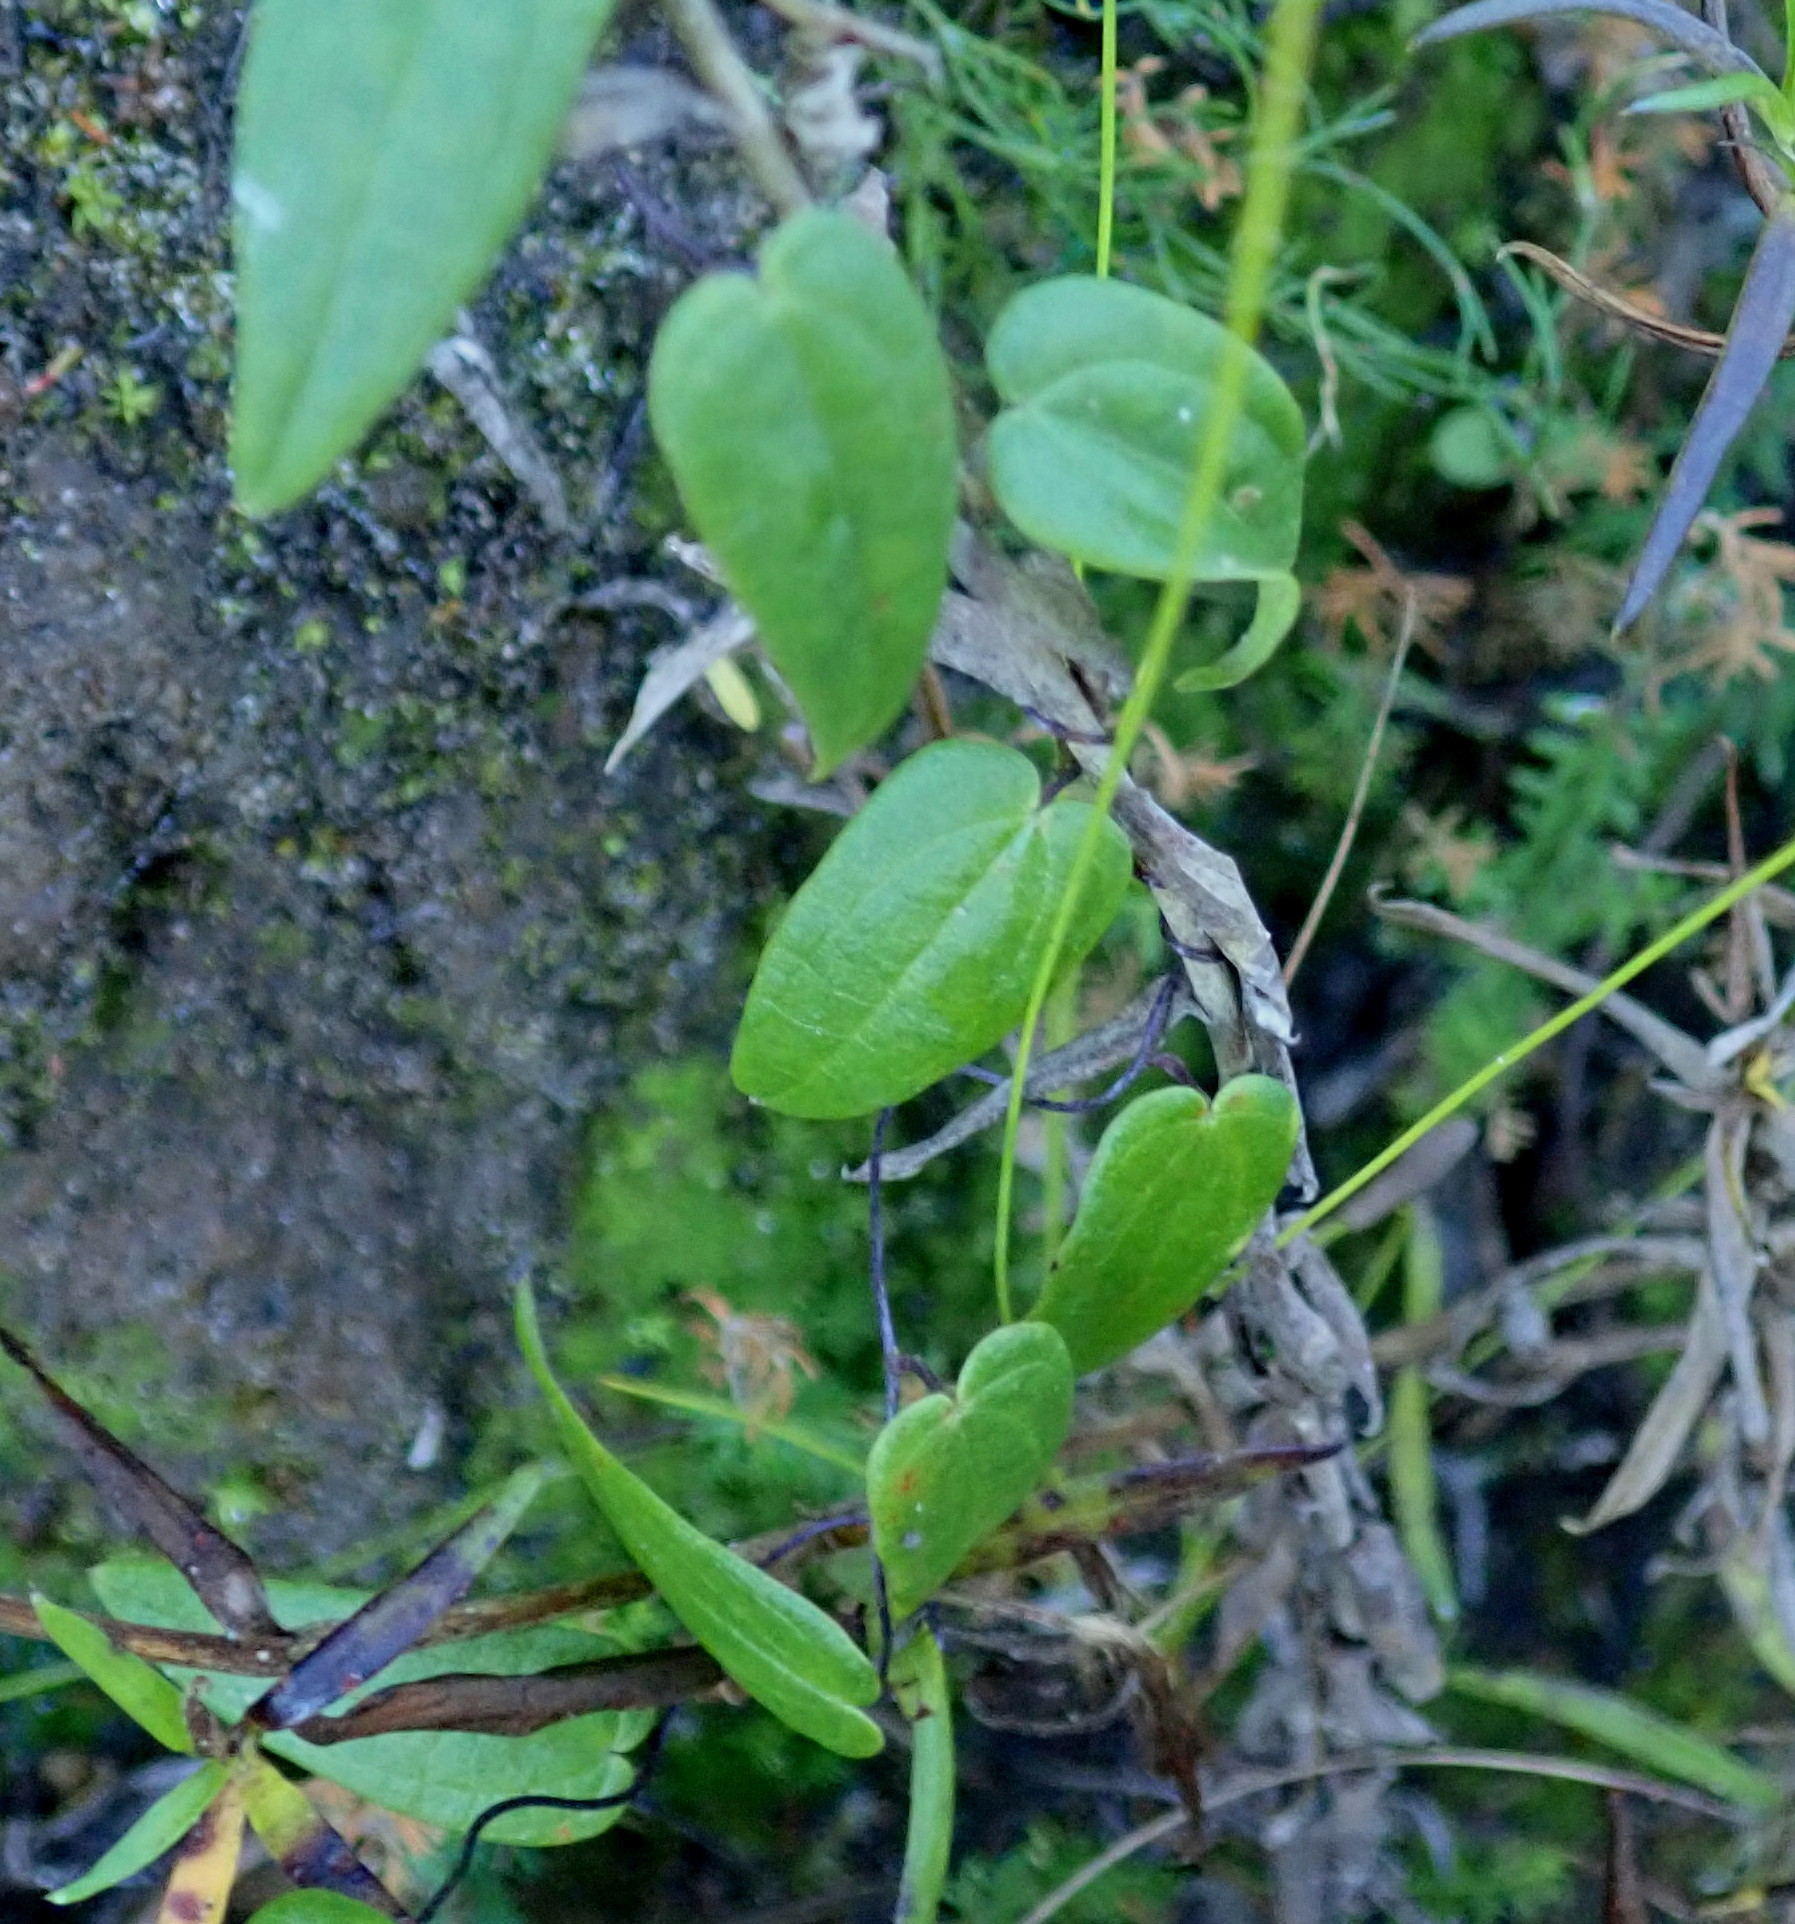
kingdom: Plantae
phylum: Tracheophyta
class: Liliopsida
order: Dioscoreales
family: Dioscoreaceae
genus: Dioscorea
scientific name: Dioscorea burchellii
